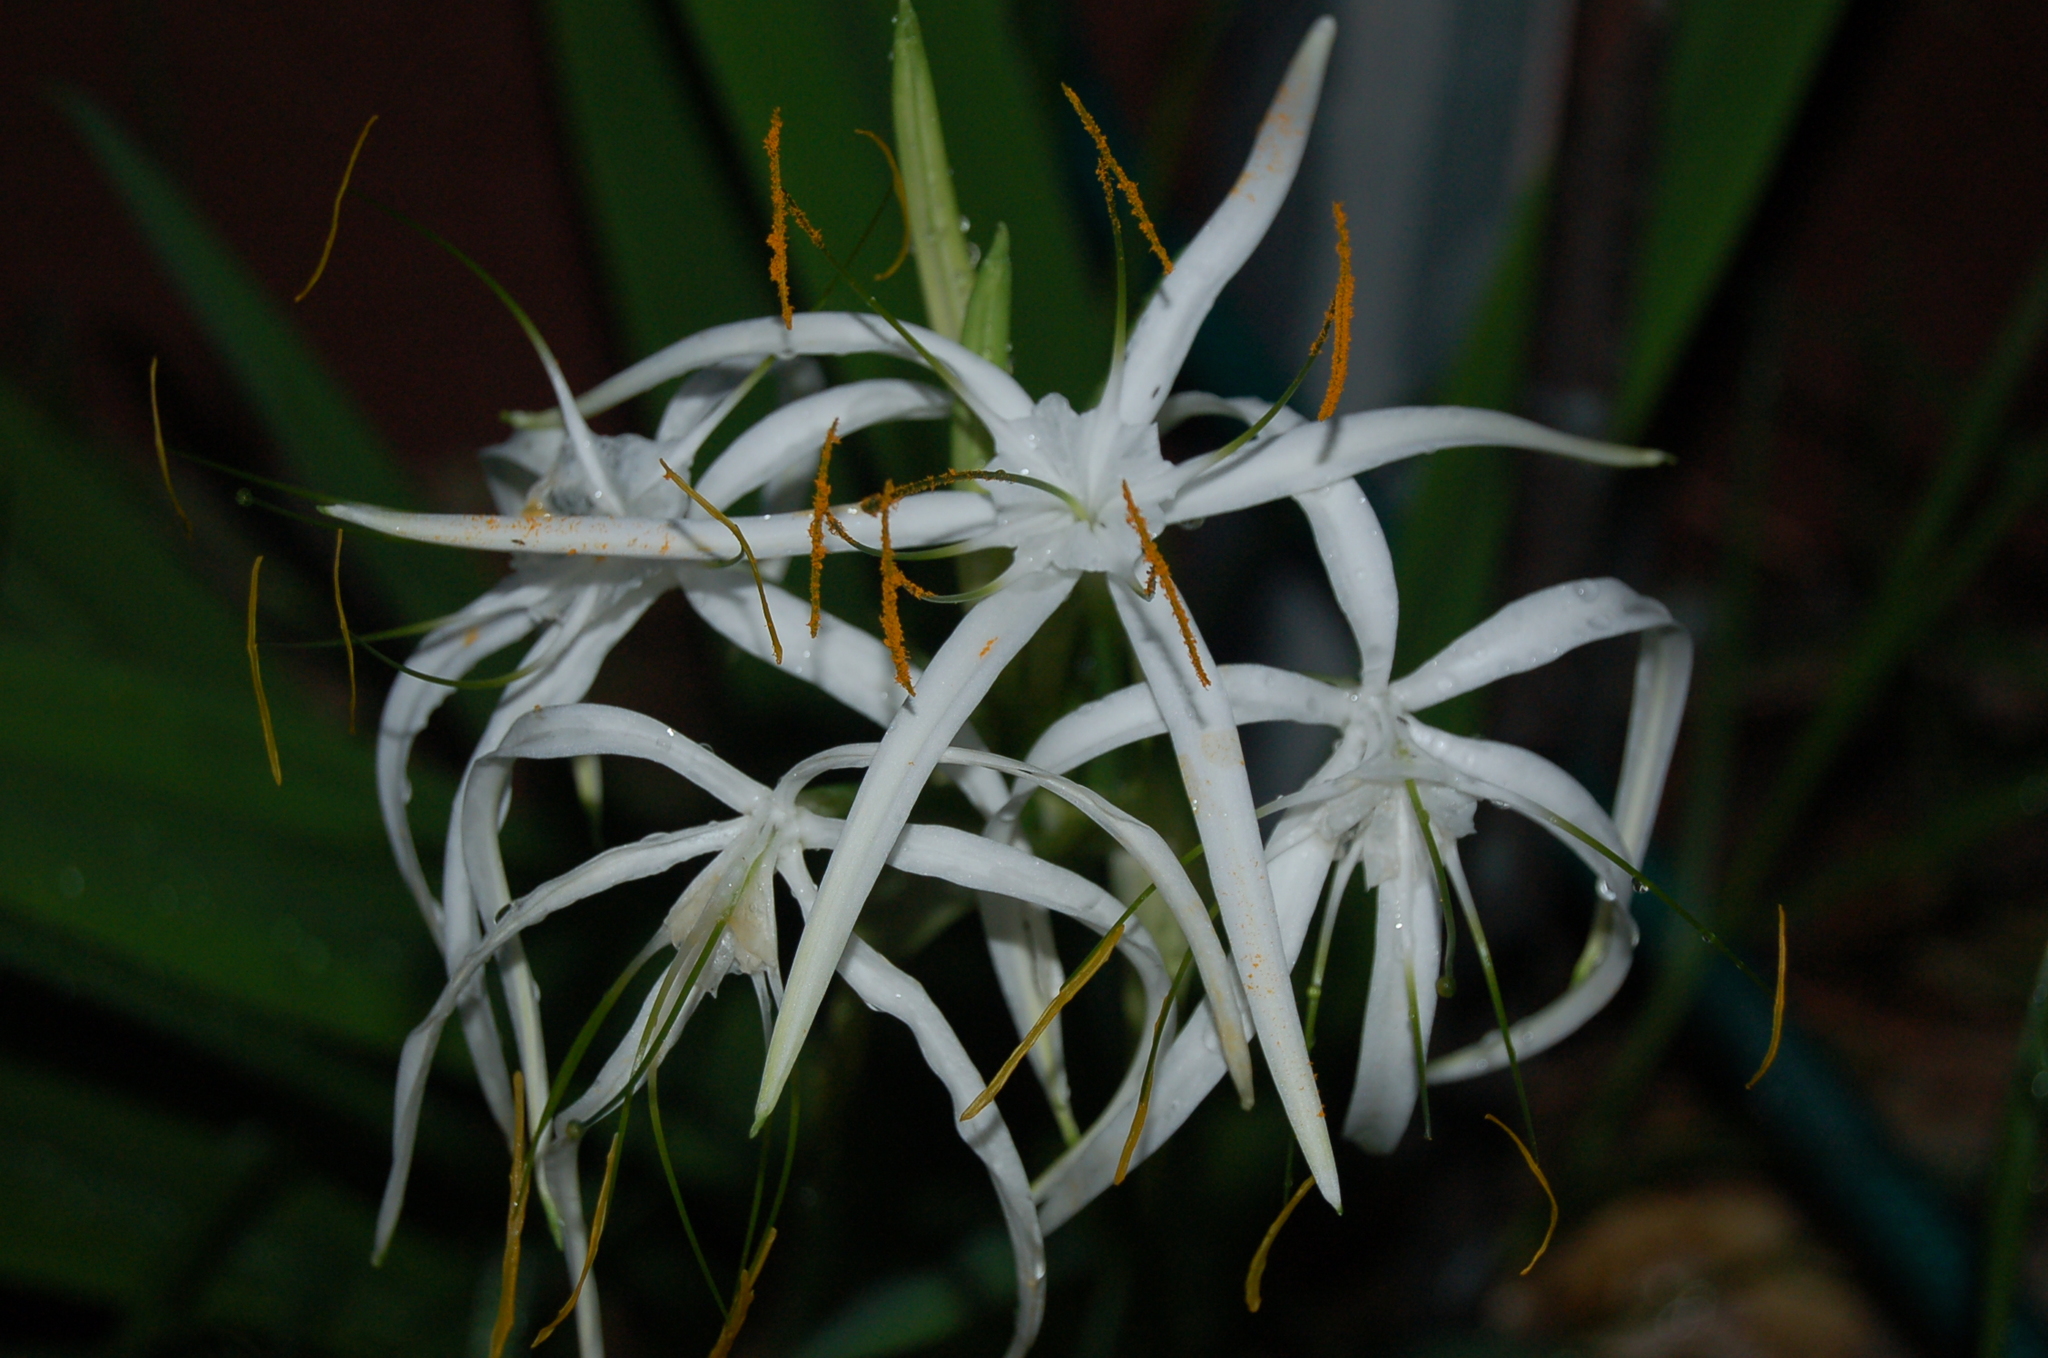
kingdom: Plantae
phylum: Tracheophyta
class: Liliopsida
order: Asparagales
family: Amaryllidaceae
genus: Hymenocallis
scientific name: Hymenocallis cleo
